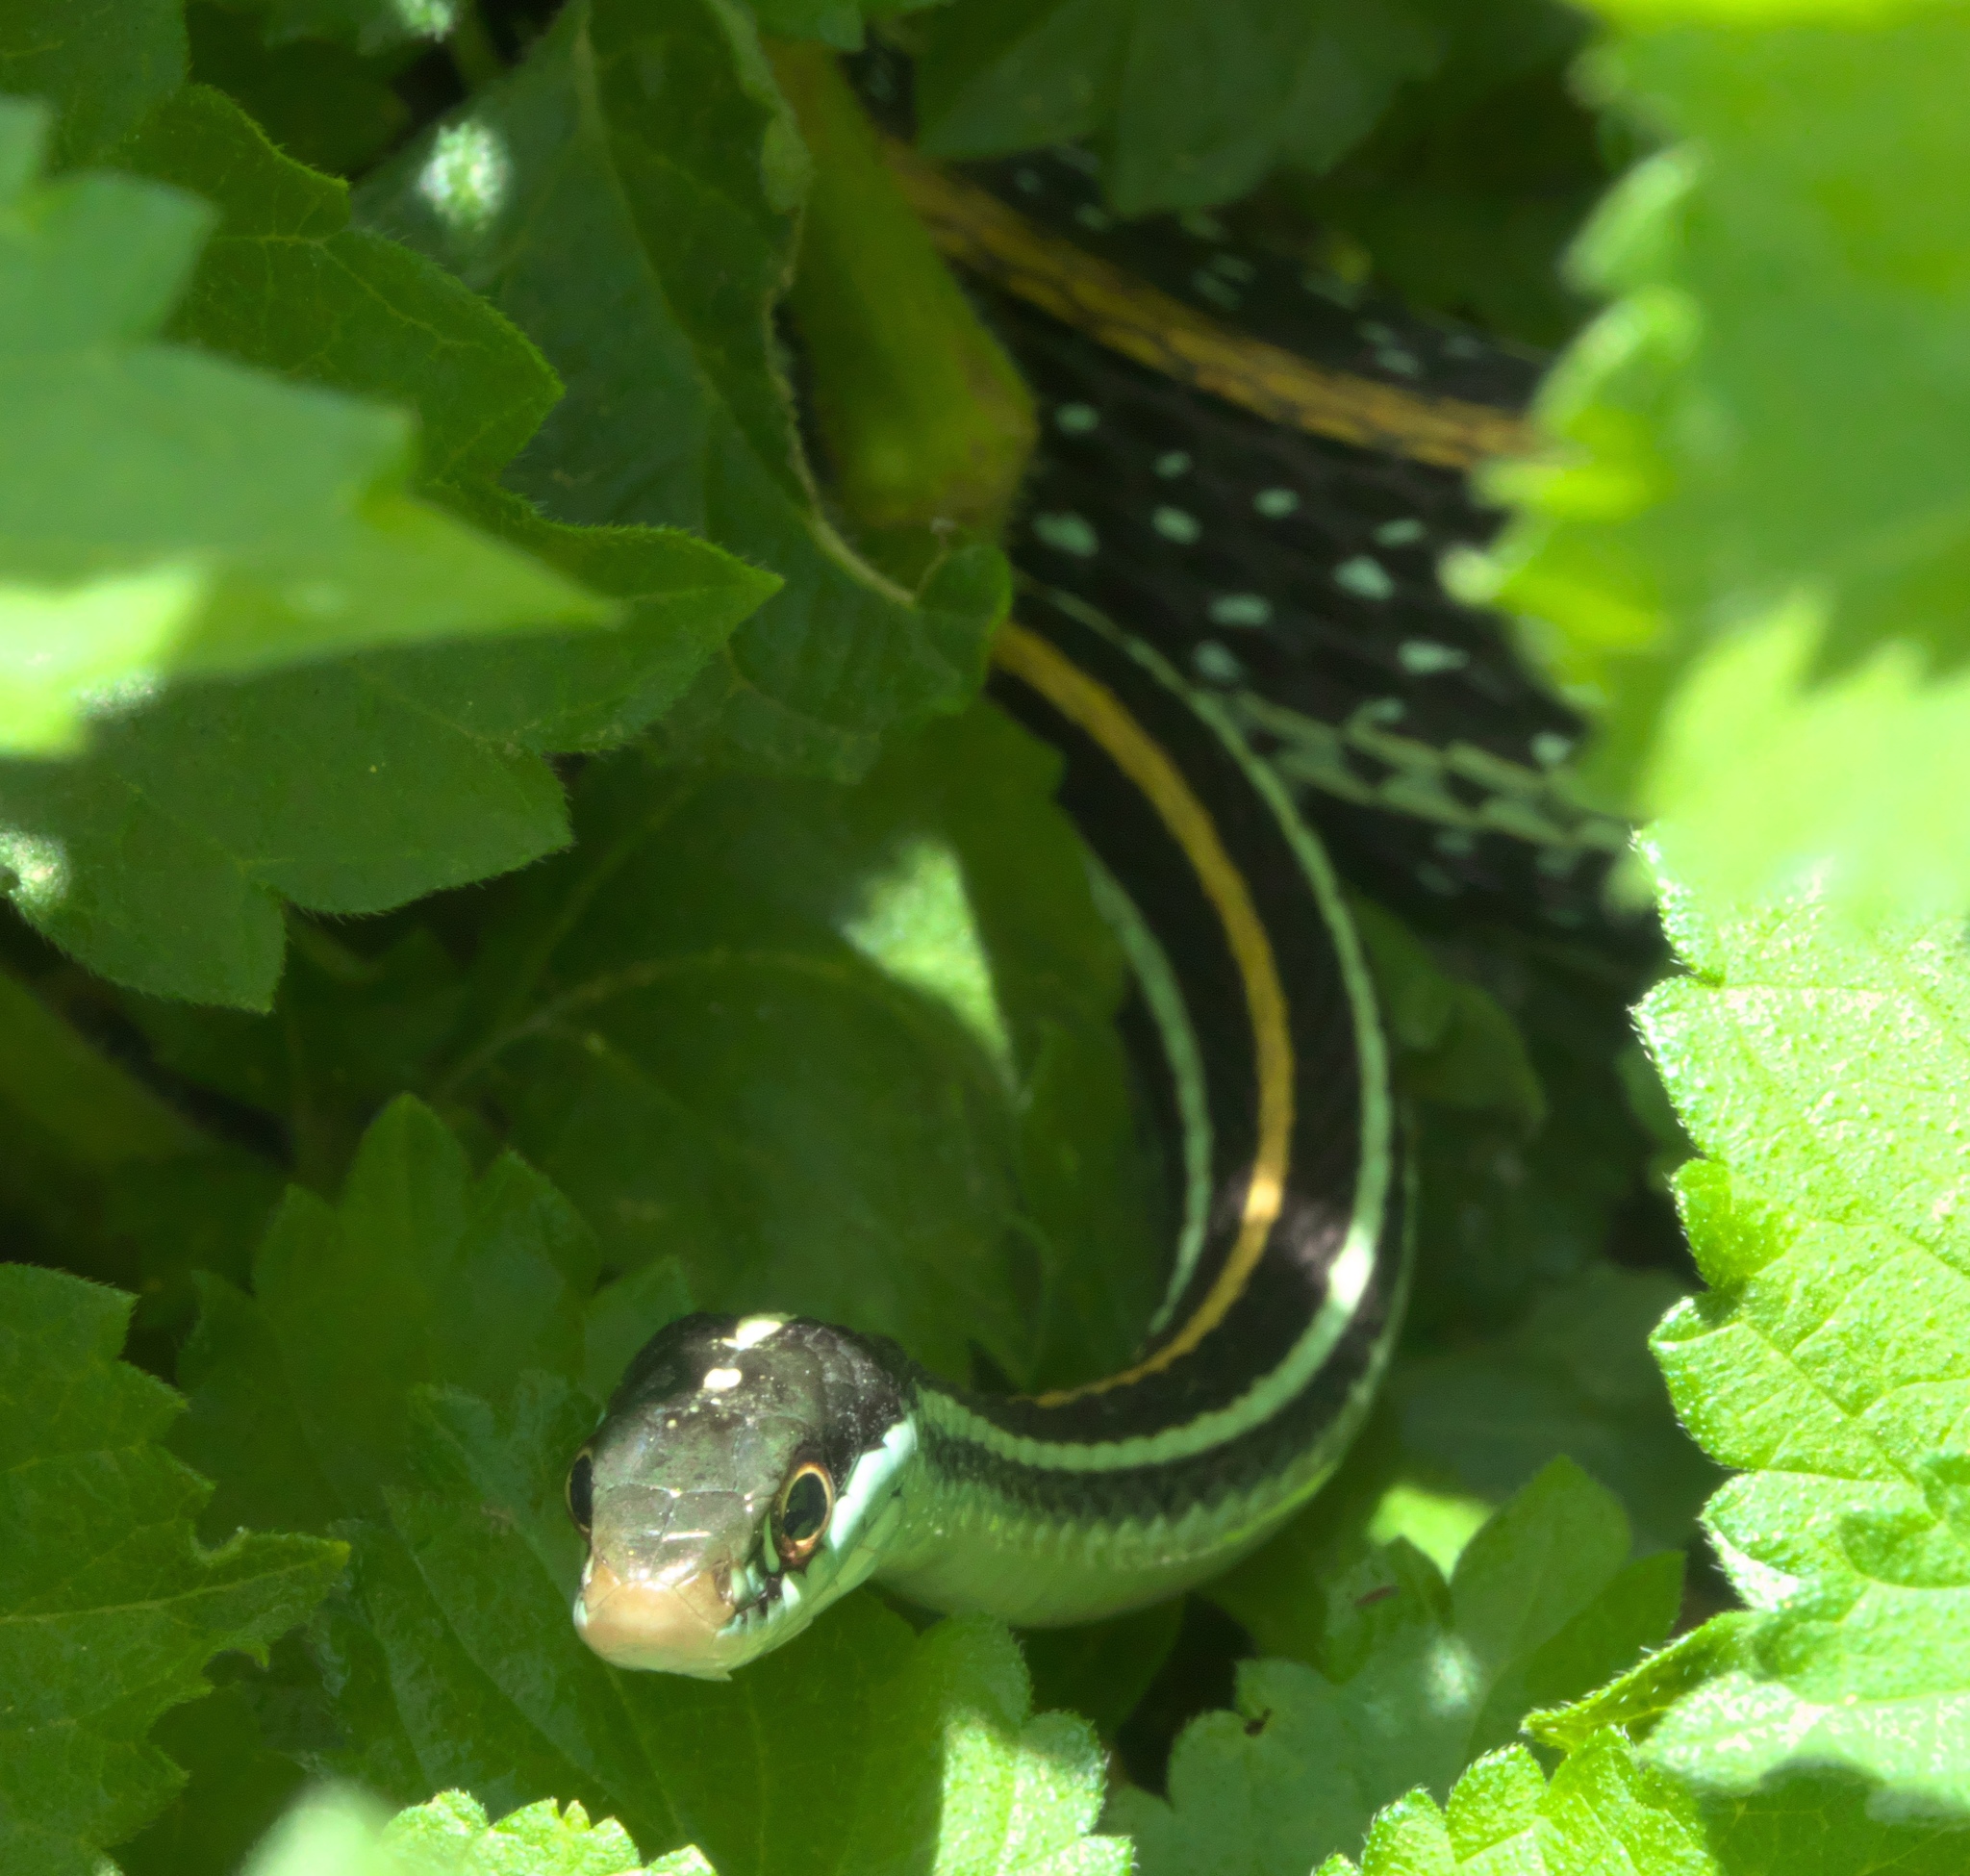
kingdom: Animalia
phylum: Chordata
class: Squamata
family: Colubridae
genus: Thamnophis
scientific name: Thamnophis proximus
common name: Western ribbon snake
